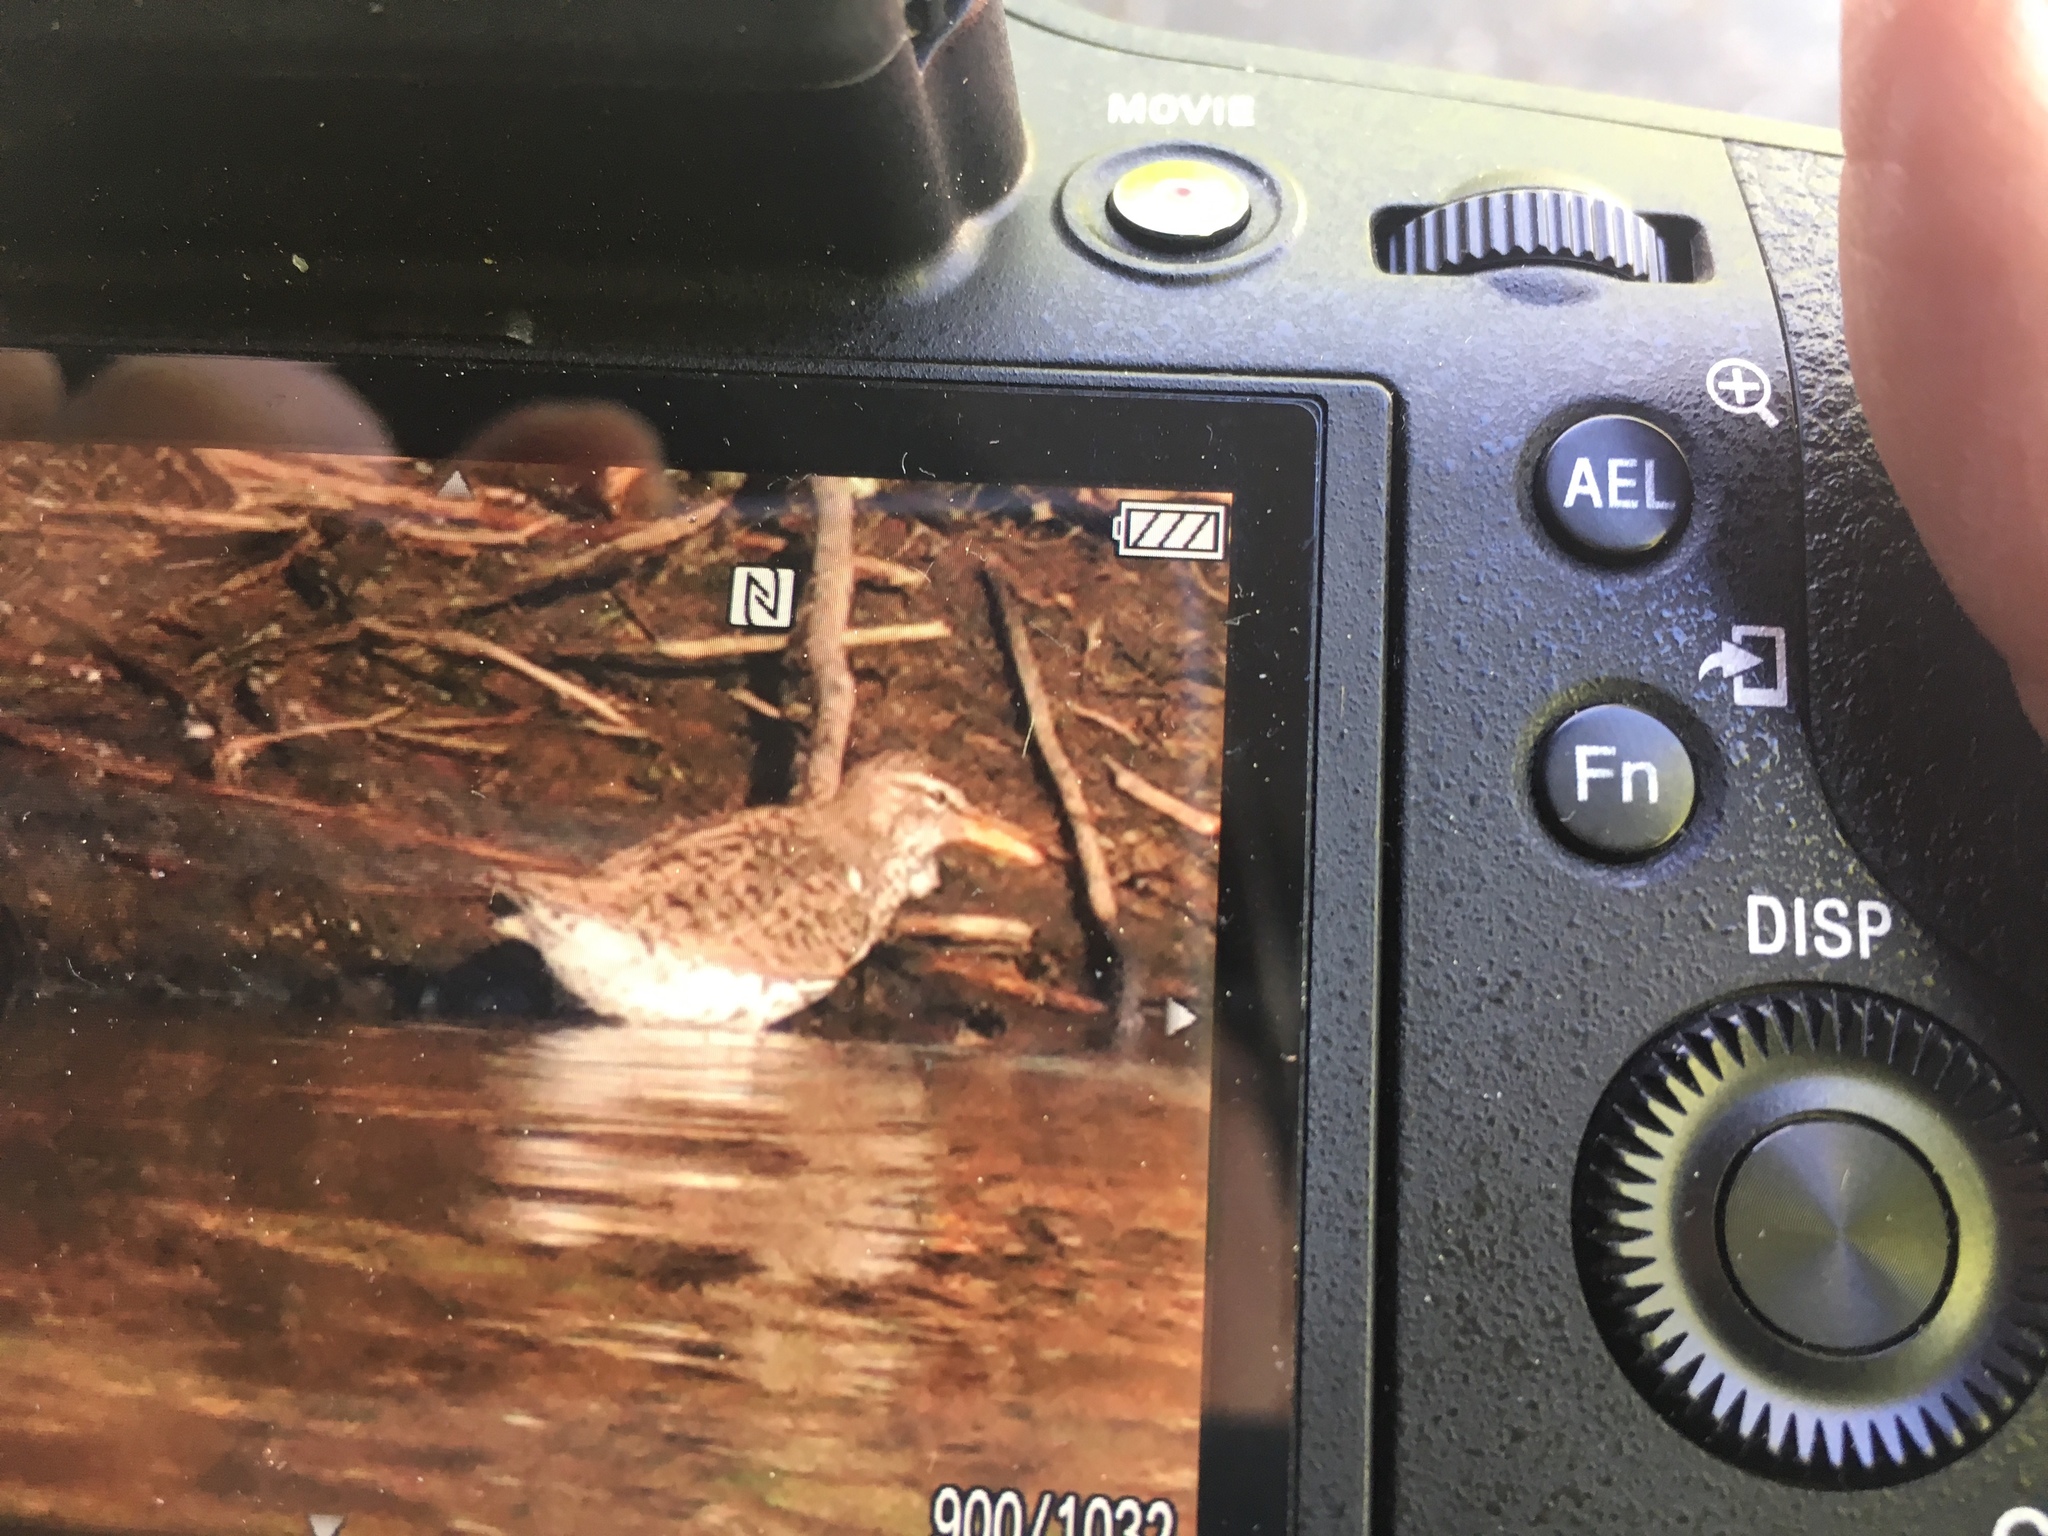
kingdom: Animalia
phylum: Chordata
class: Aves
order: Charadriiformes
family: Scolopacidae
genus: Actitis
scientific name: Actitis macularius
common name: Spotted sandpiper
